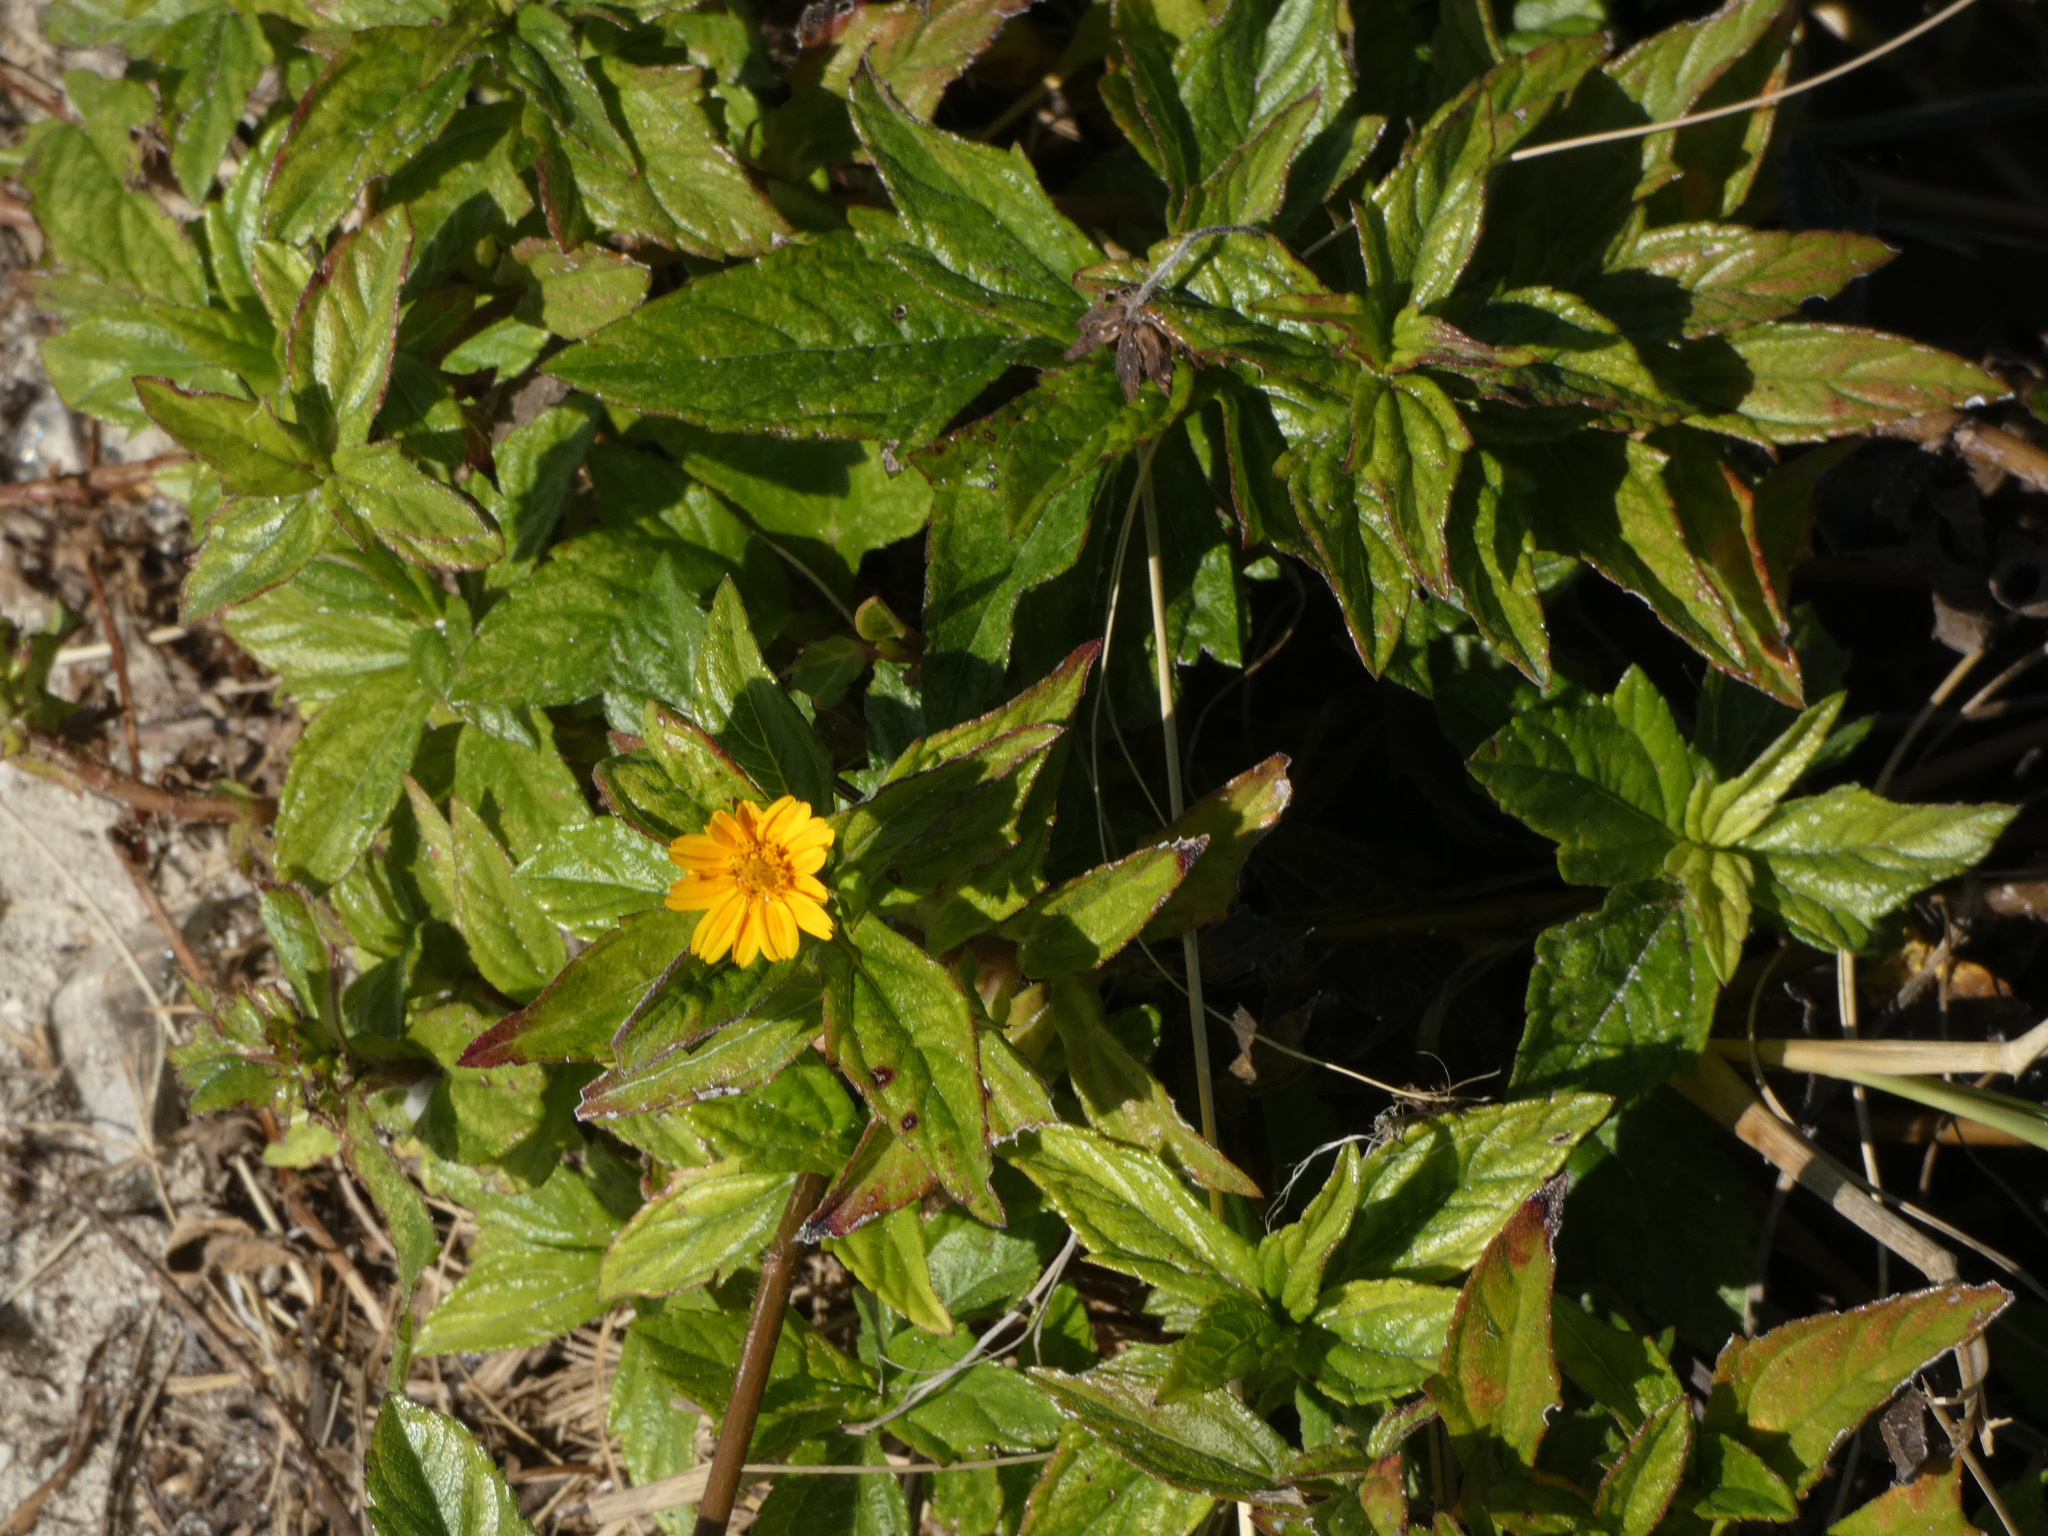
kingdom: Plantae
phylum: Tracheophyta
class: Magnoliopsida
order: Asterales
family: Asteraceae
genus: Sphagneticola
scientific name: Sphagneticola trilobata
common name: Bay biscayne creeping-oxeye
